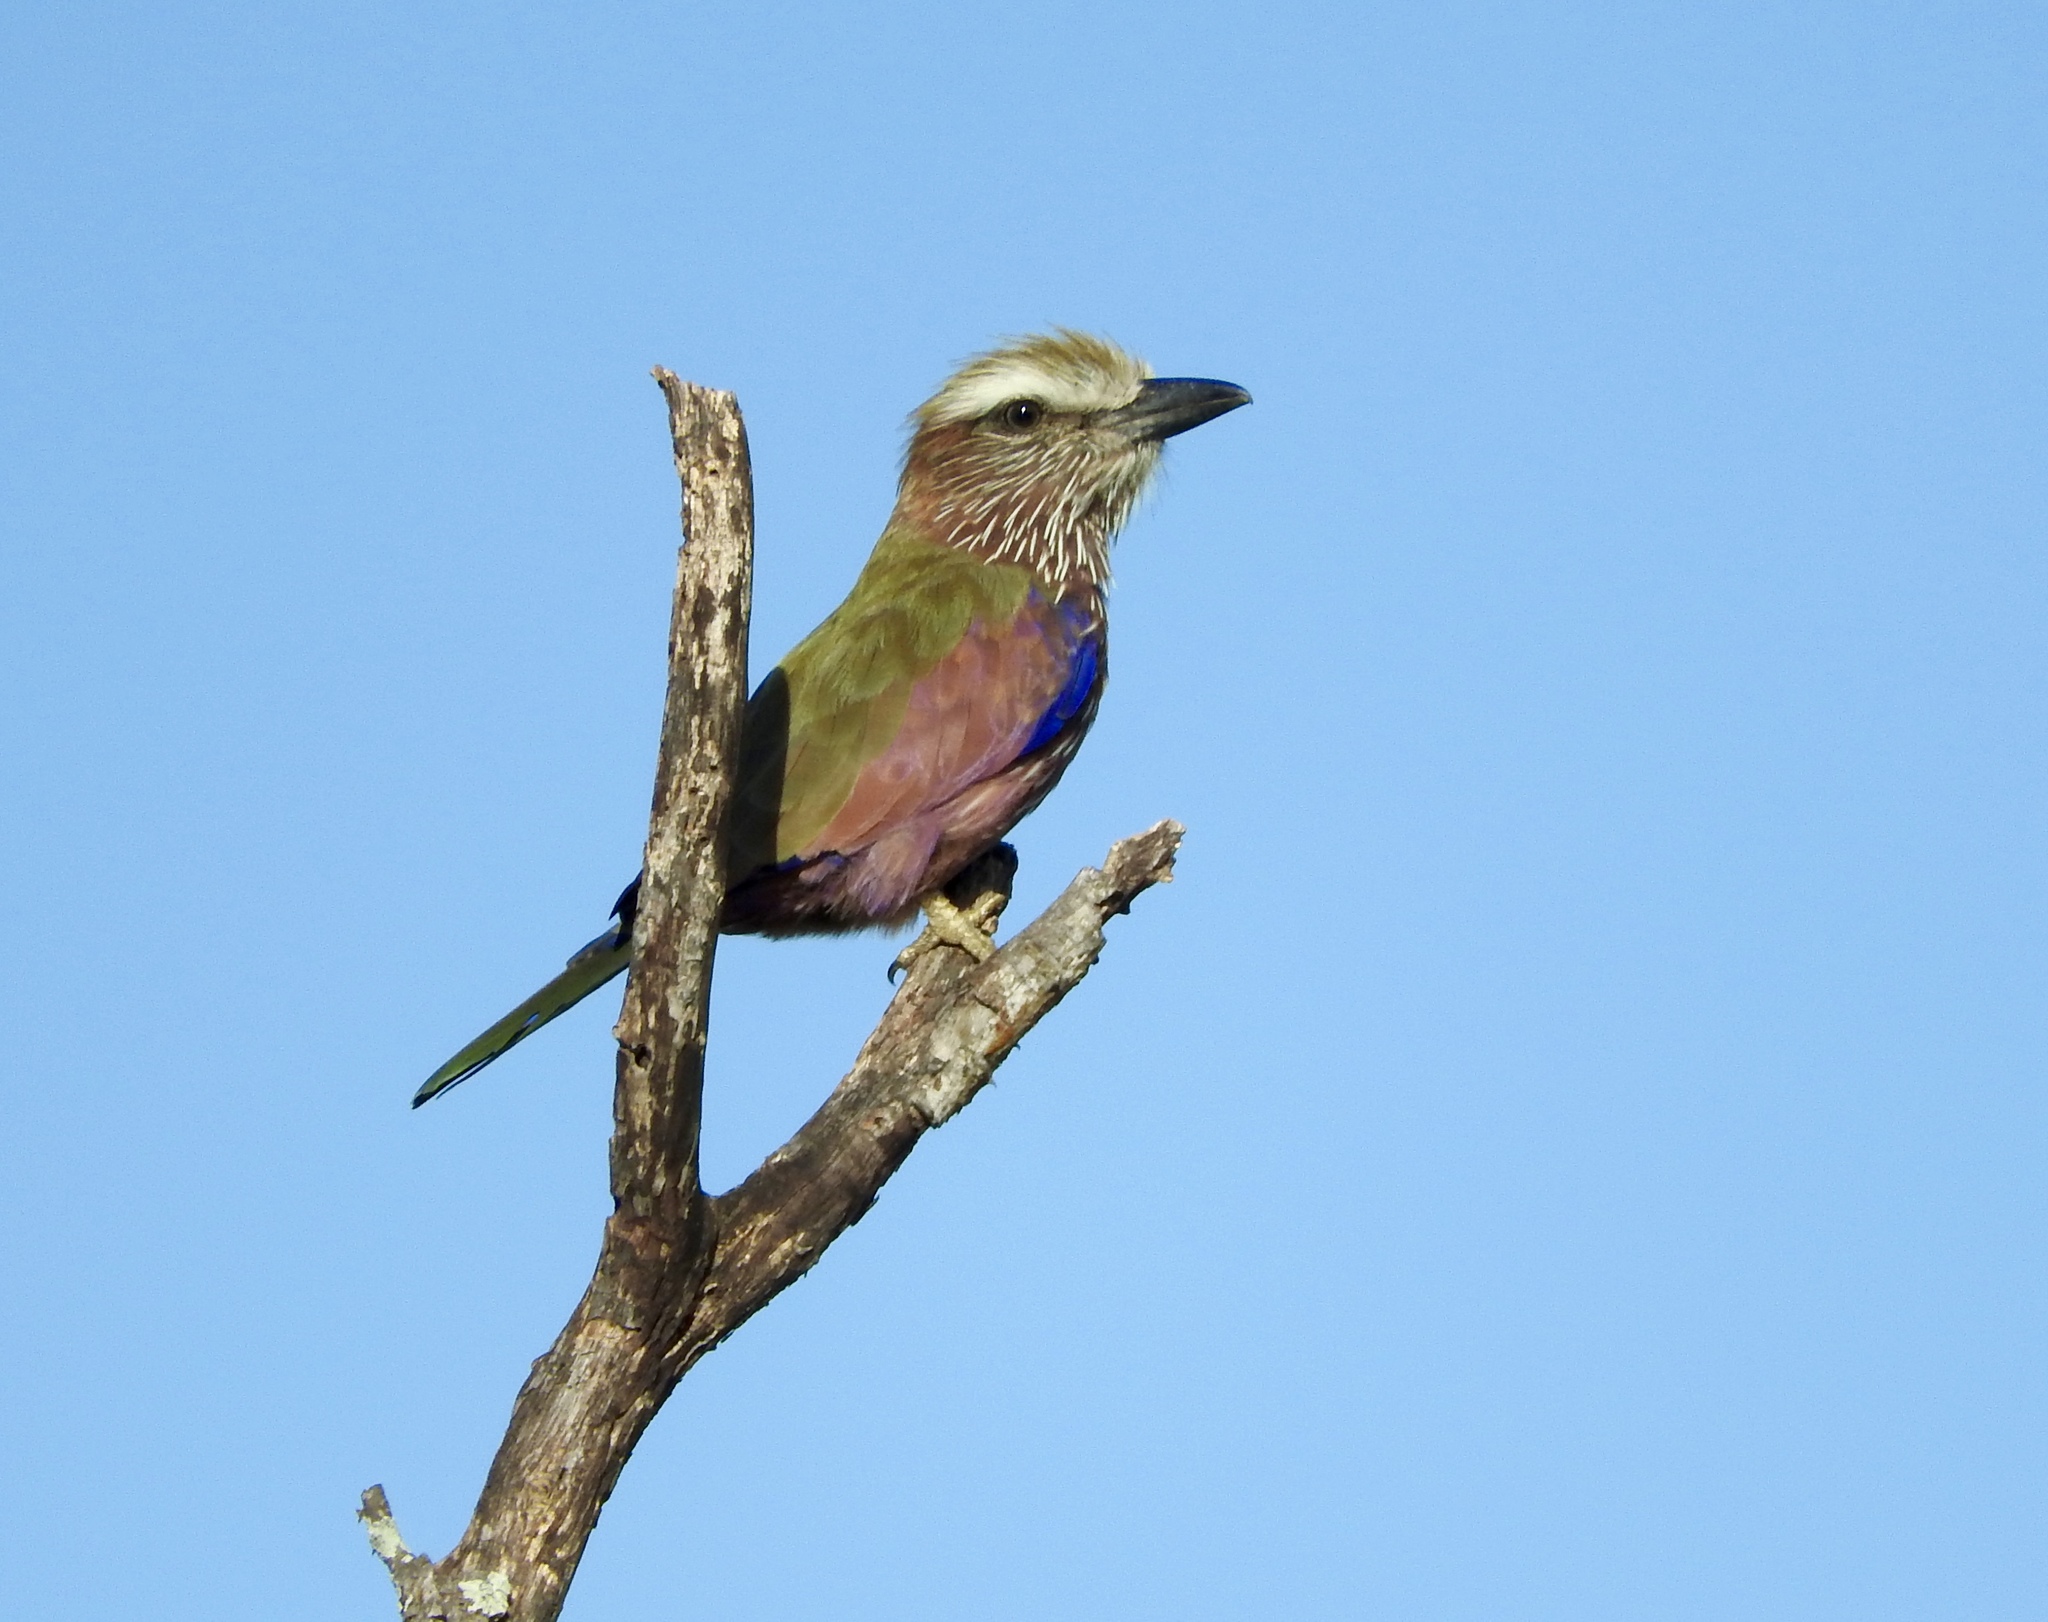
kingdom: Animalia
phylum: Chordata
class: Aves
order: Coraciiformes
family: Coraciidae
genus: Coracias
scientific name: Coracias naevius
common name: Purple roller
